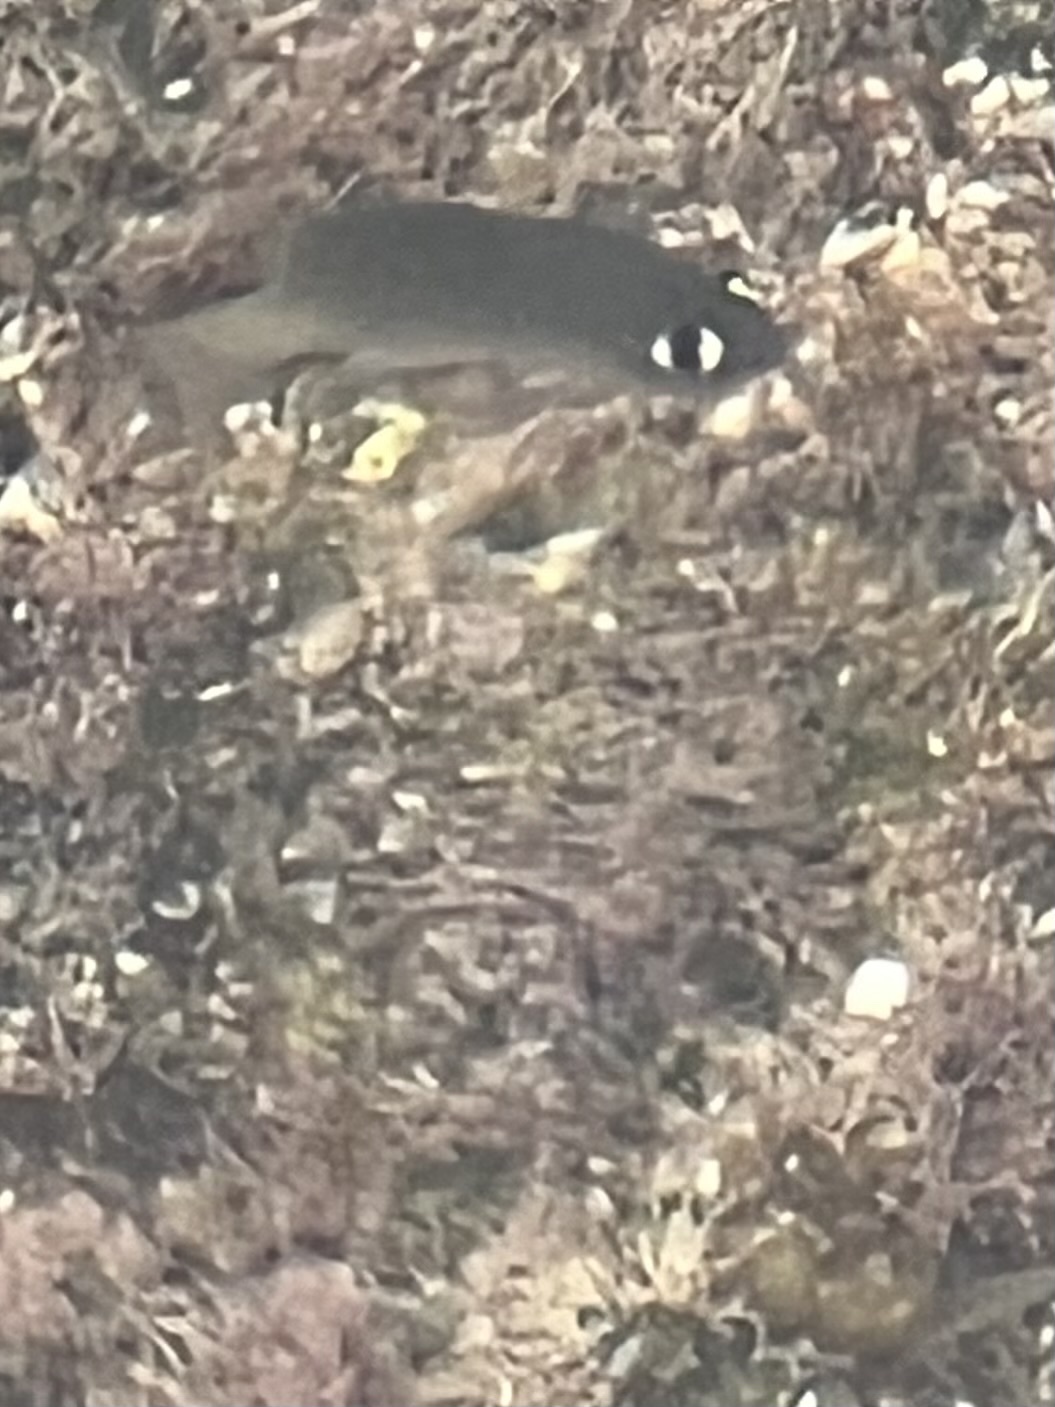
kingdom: Animalia
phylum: Chordata
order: Perciformes
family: Pomacentridae
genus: Plectroglyphidodon
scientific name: Plectroglyphidodon imparipennis
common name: Brighteye damsel
